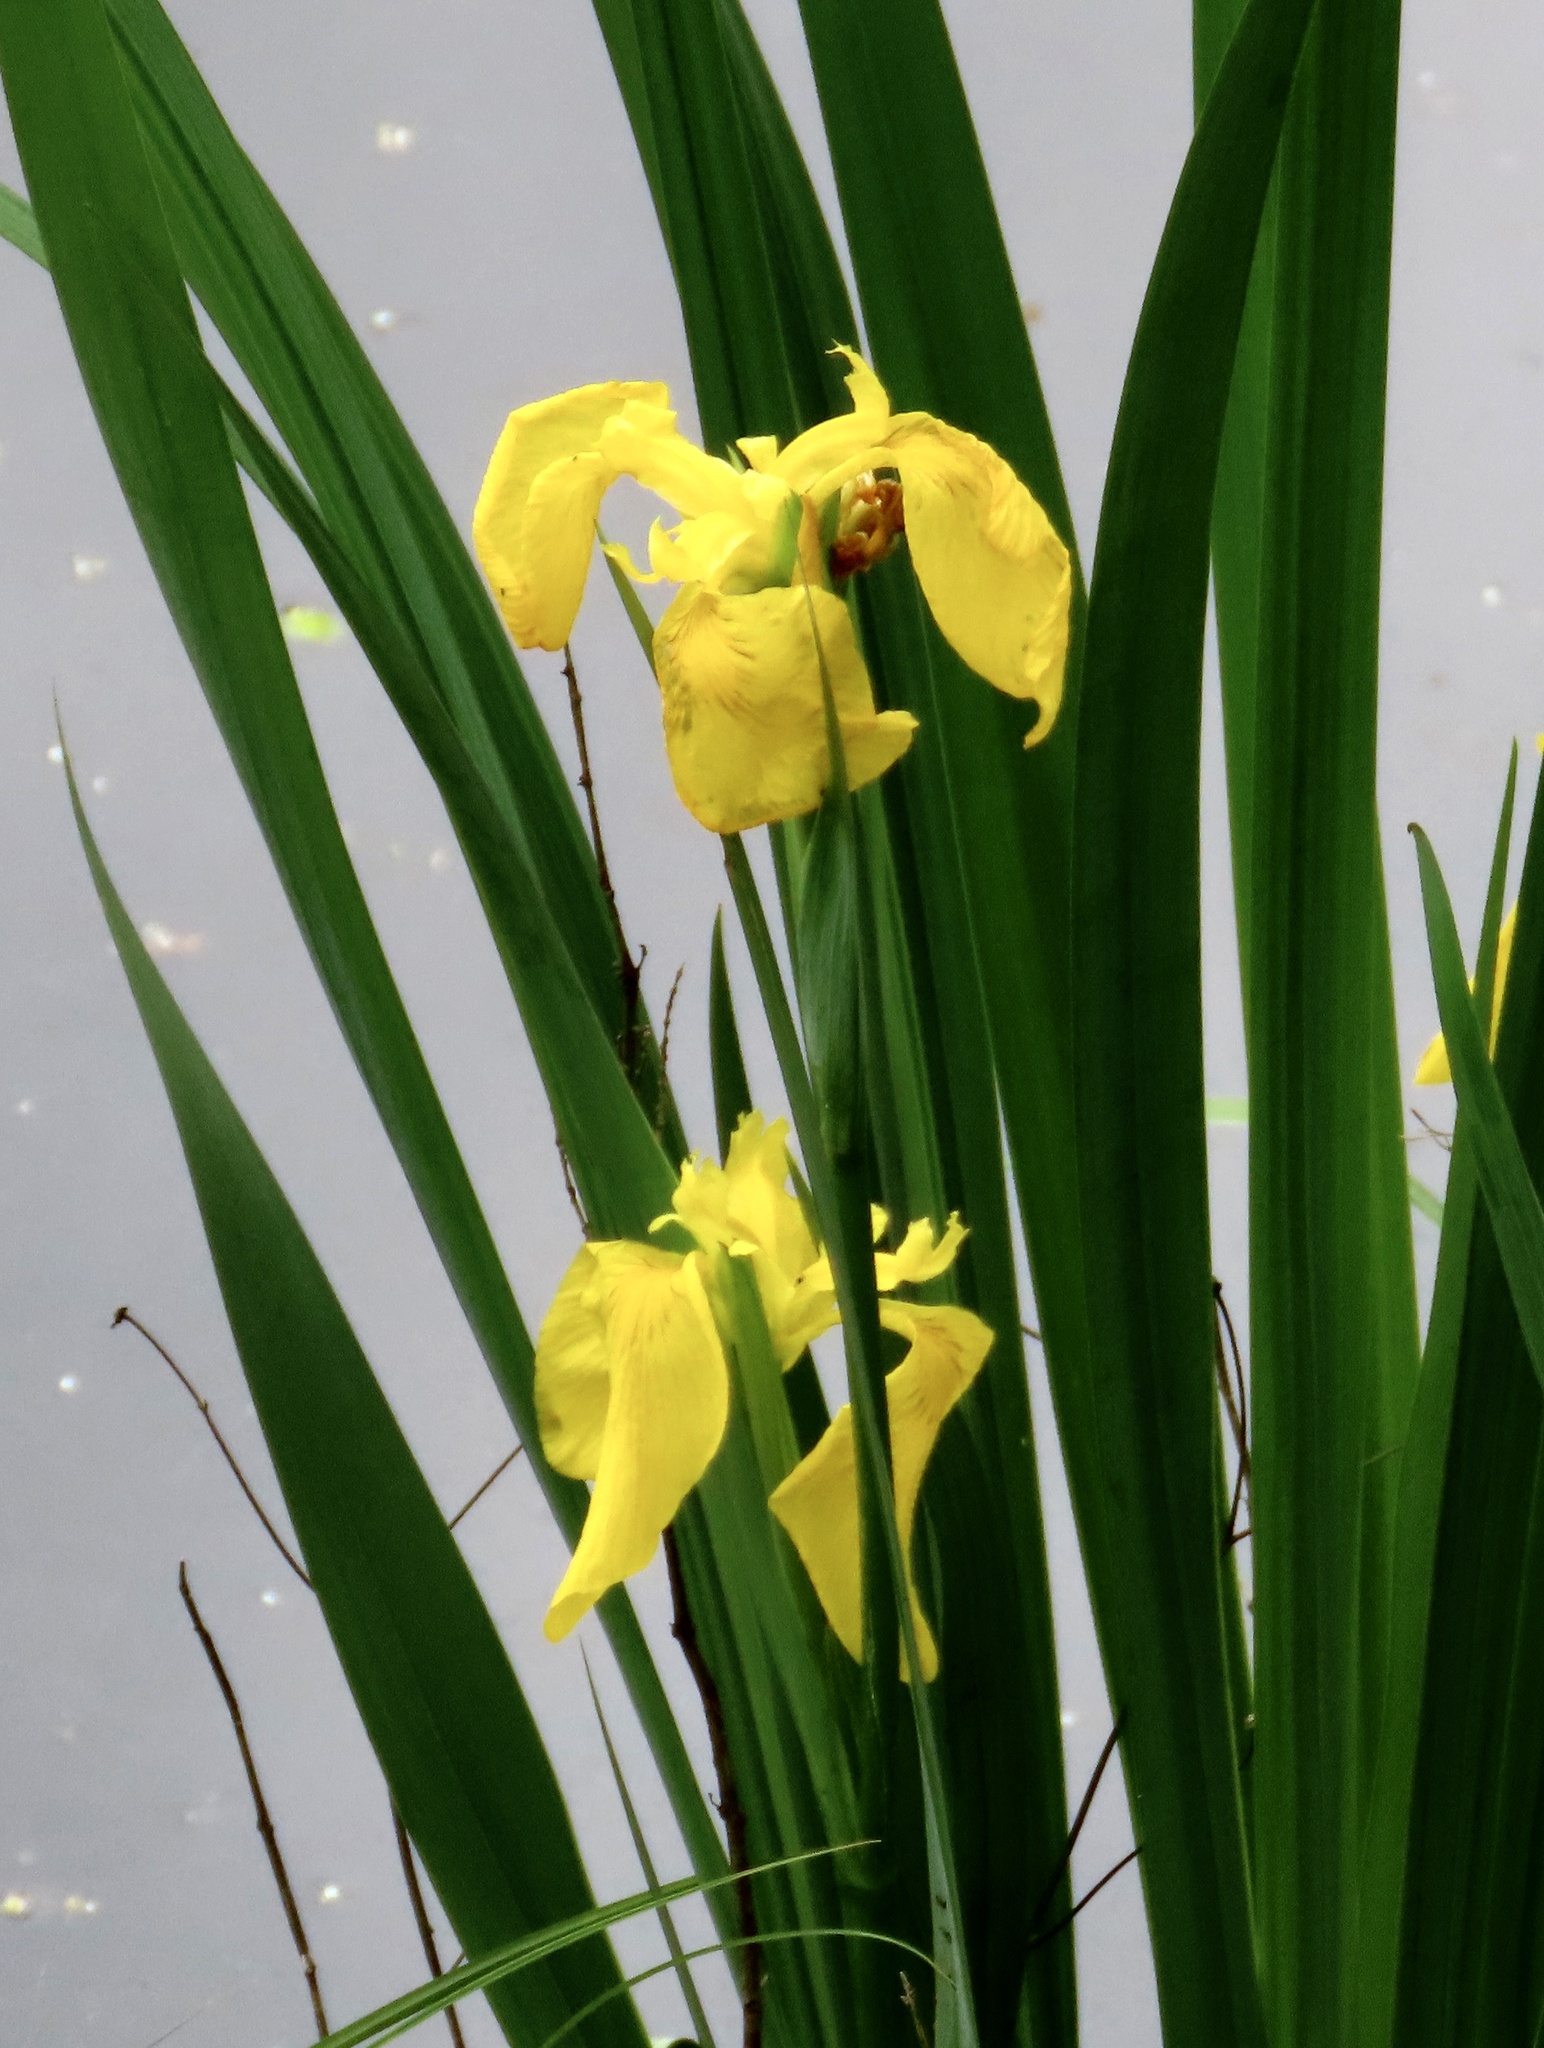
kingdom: Plantae
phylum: Tracheophyta
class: Liliopsida
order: Asparagales
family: Iridaceae
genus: Iris
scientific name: Iris pseudacorus
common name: Yellow flag
